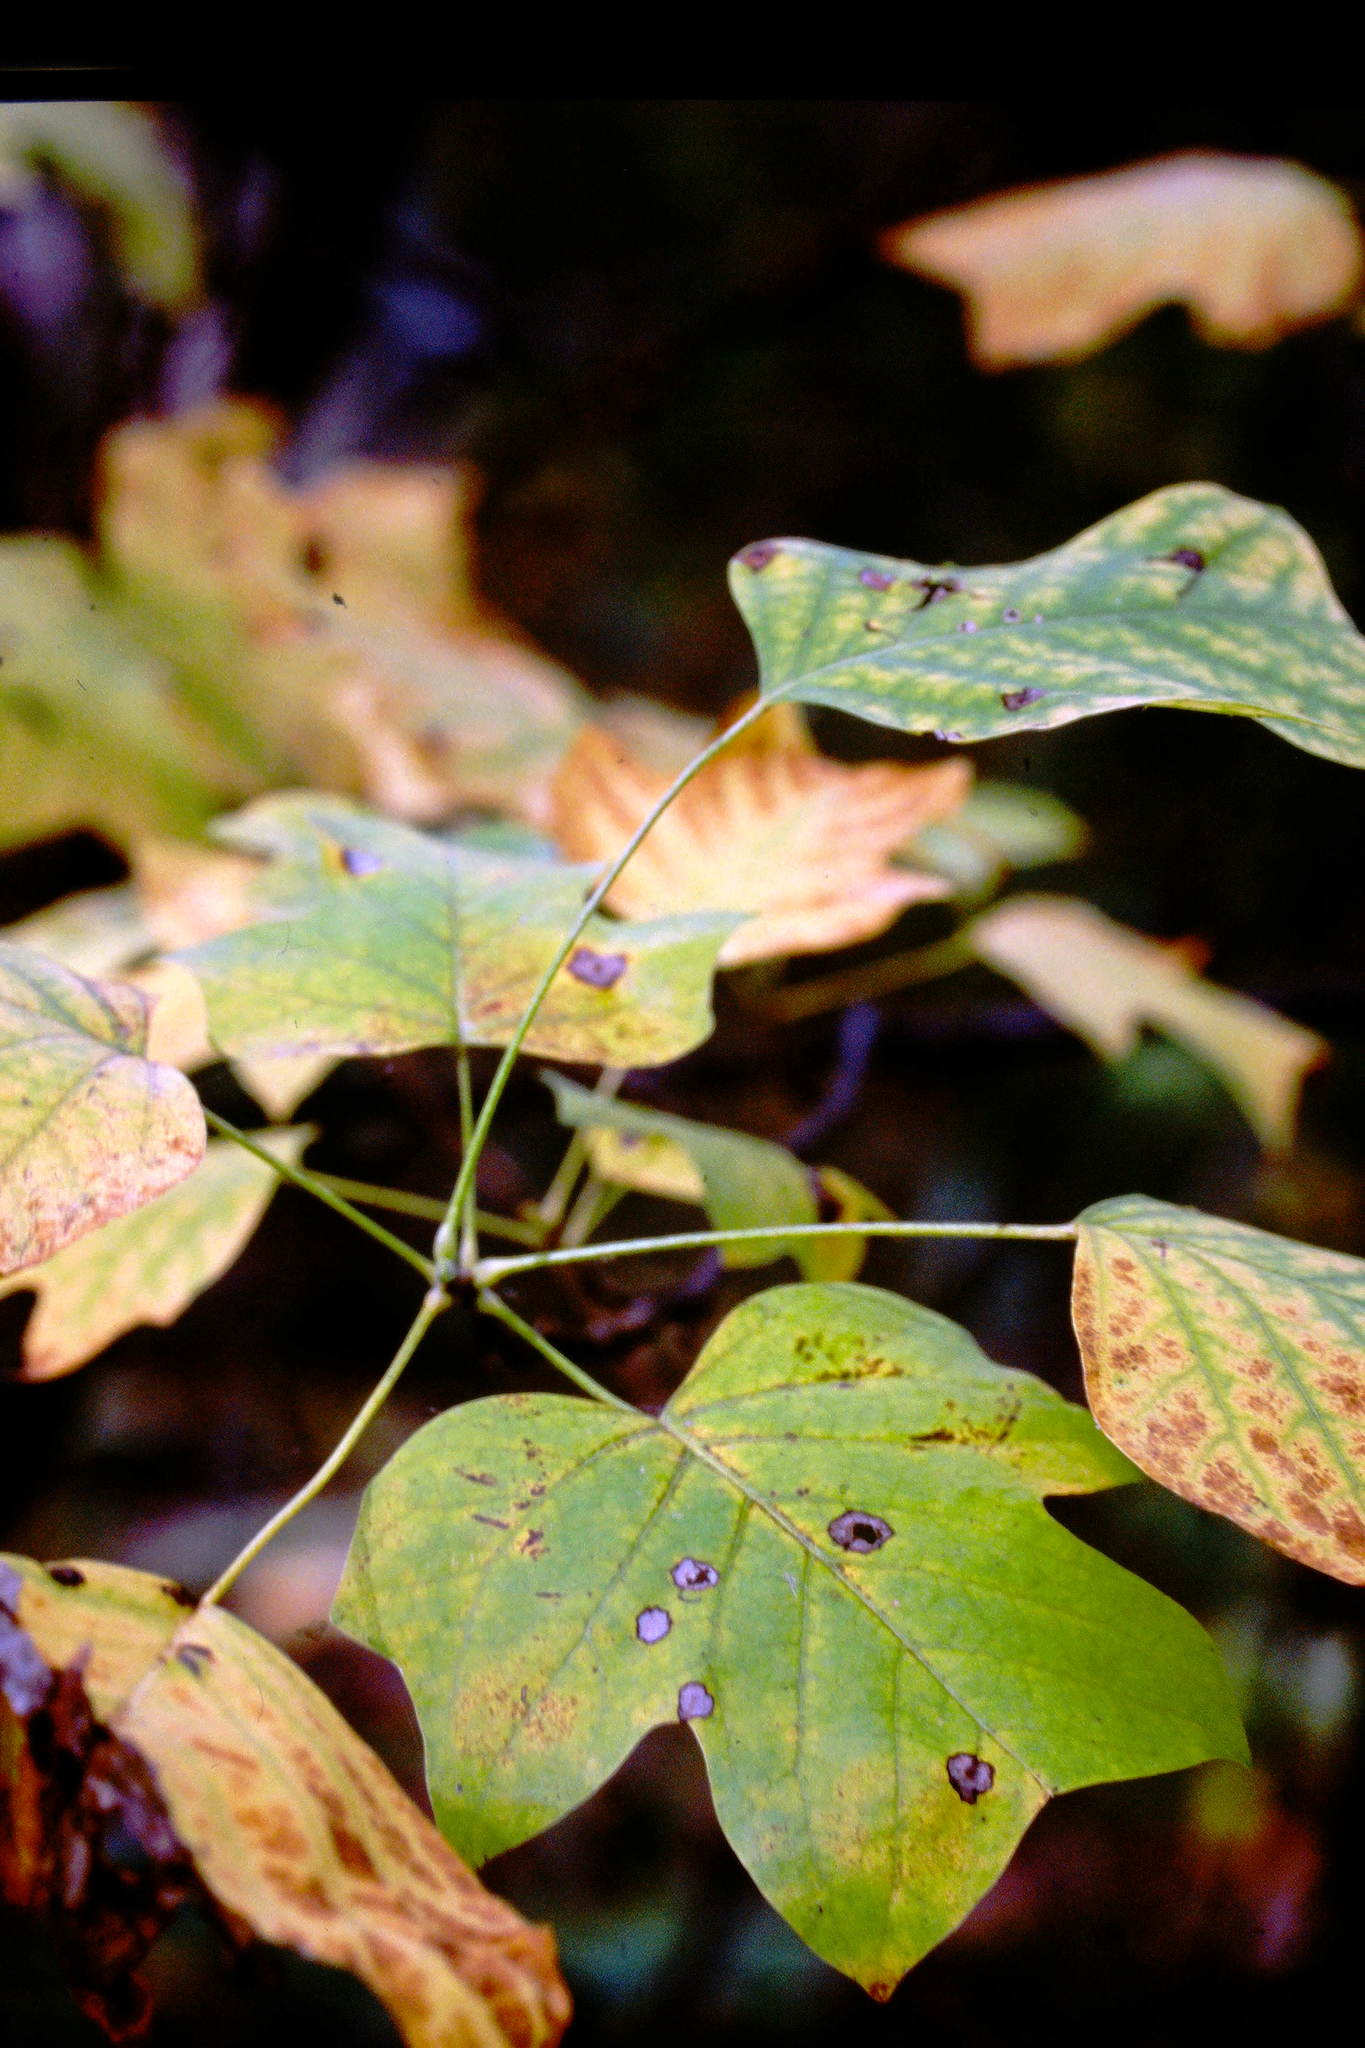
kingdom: Plantae
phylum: Tracheophyta
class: Magnoliopsida
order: Magnoliales
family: Magnoliaceae
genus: Liriodendron
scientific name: Liriodendron tulipifera
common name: Tulip tree
